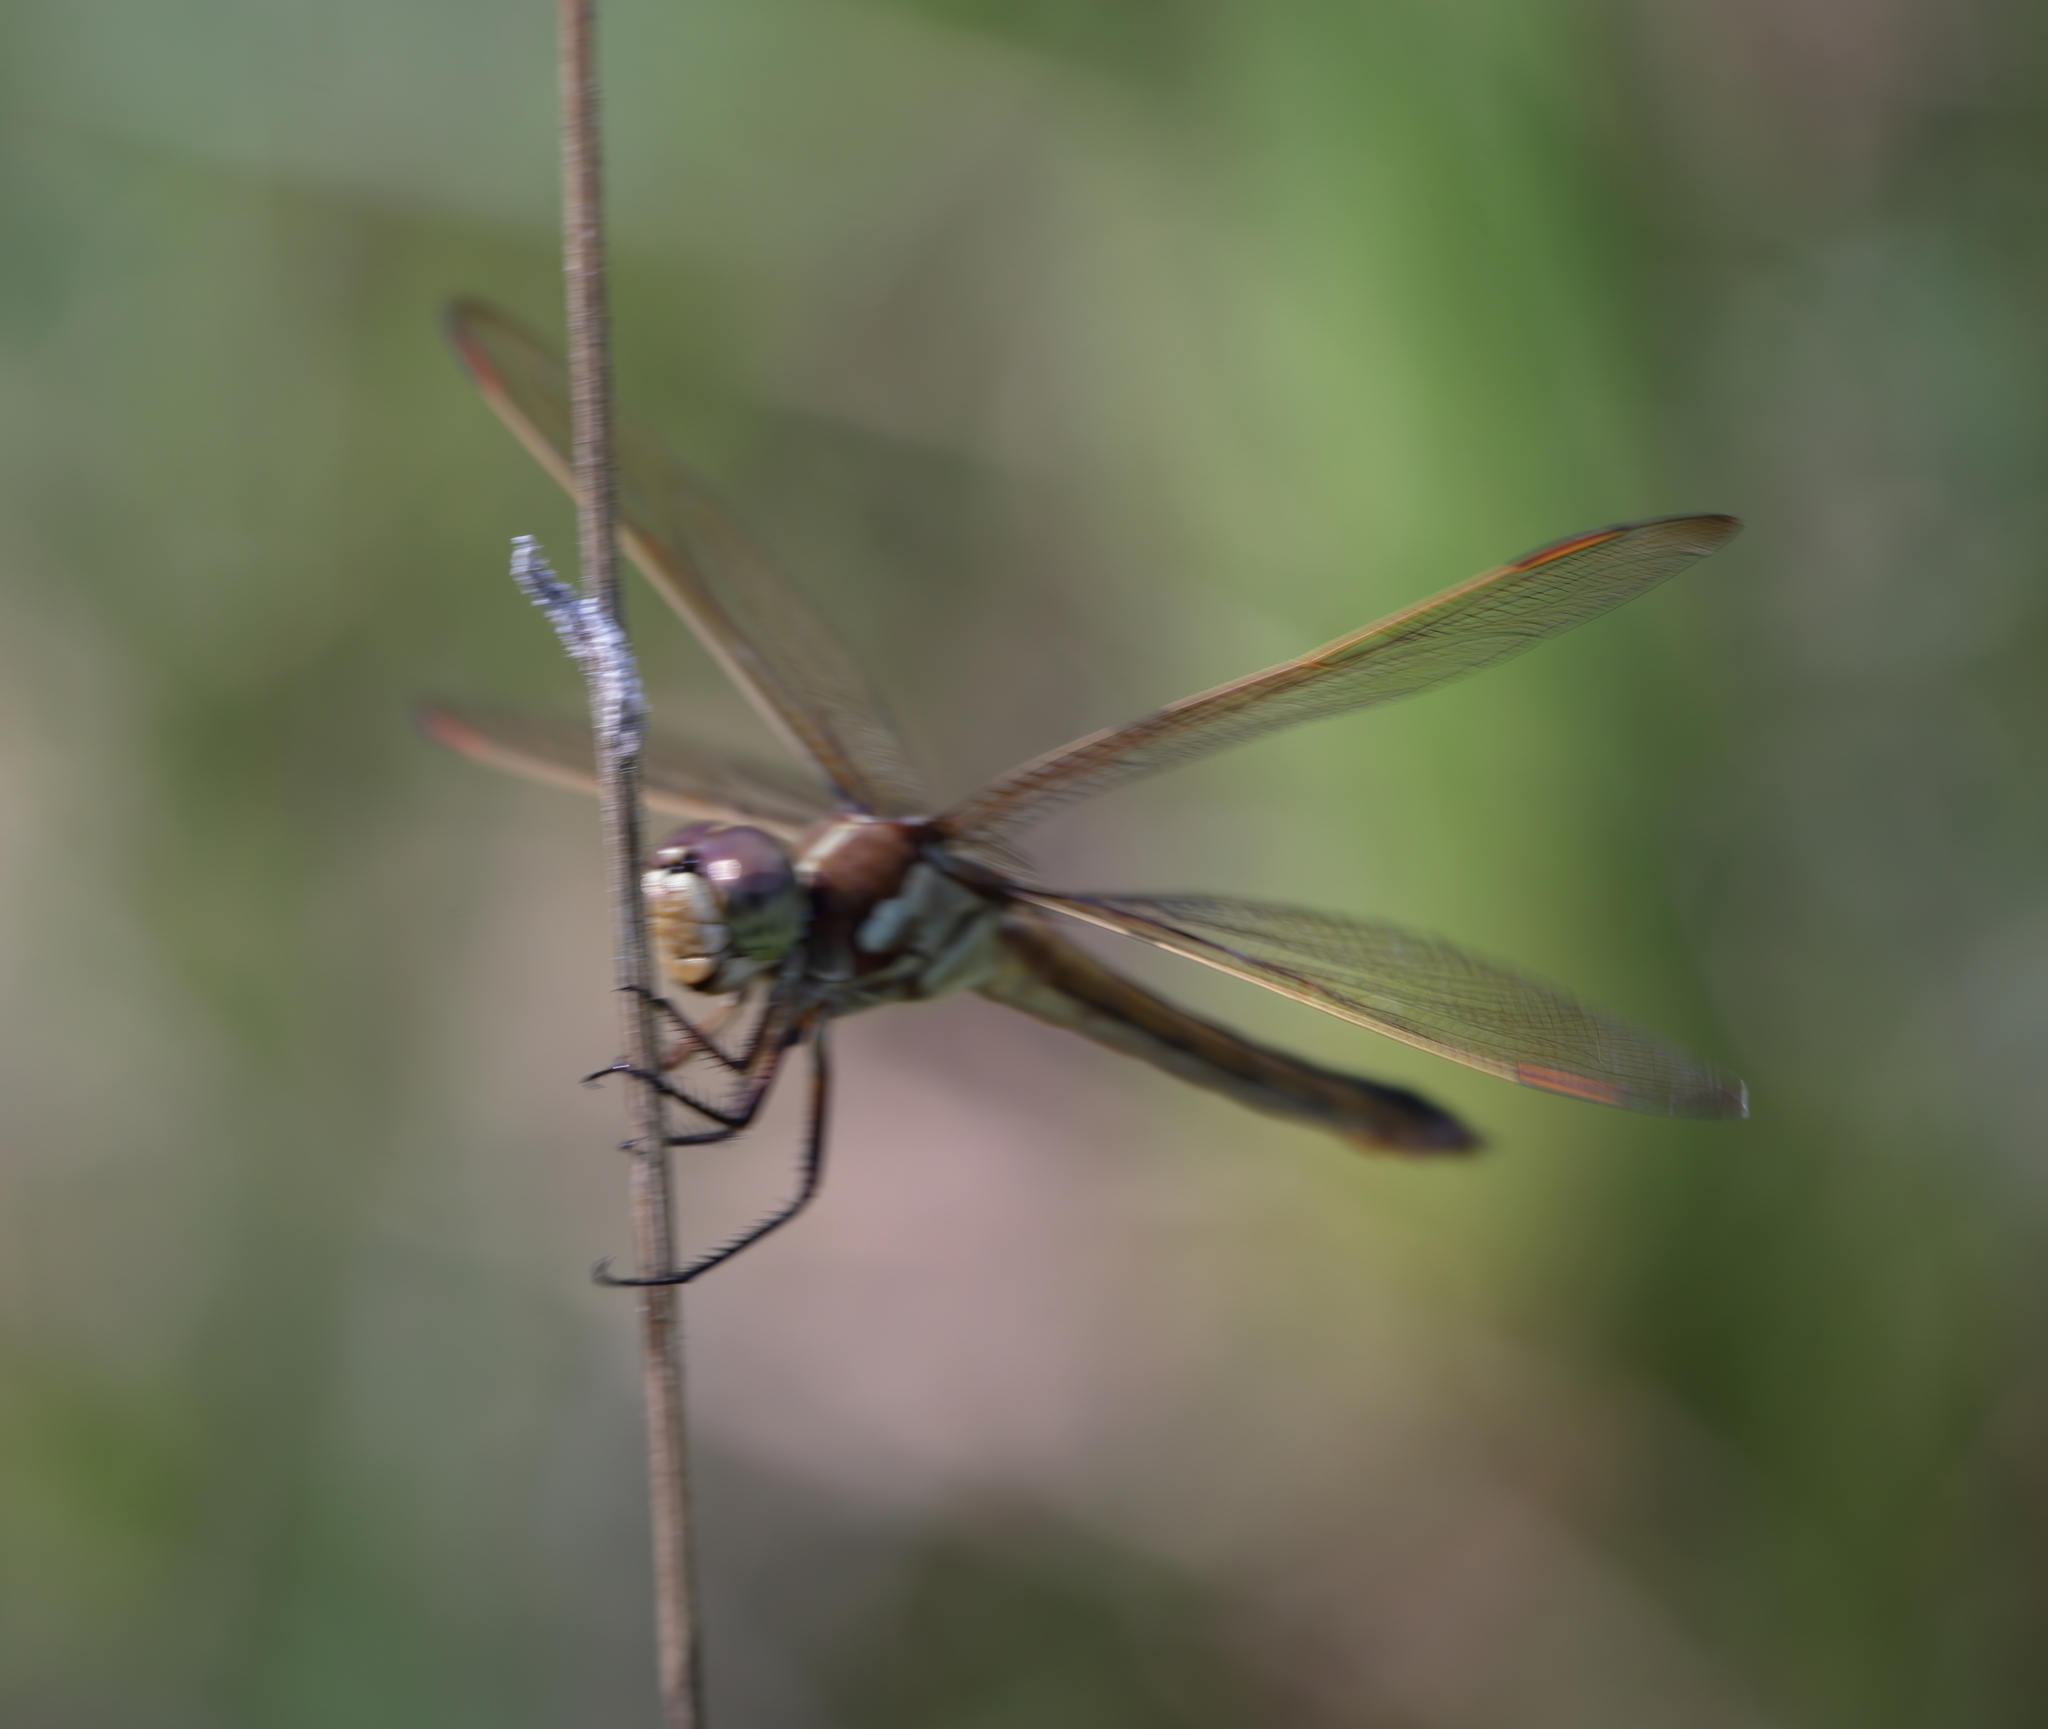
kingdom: Animalia
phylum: Arthropoda
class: Insecta
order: Odonata
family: Libellulidae
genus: Libellula
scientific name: Libellula auripennis
